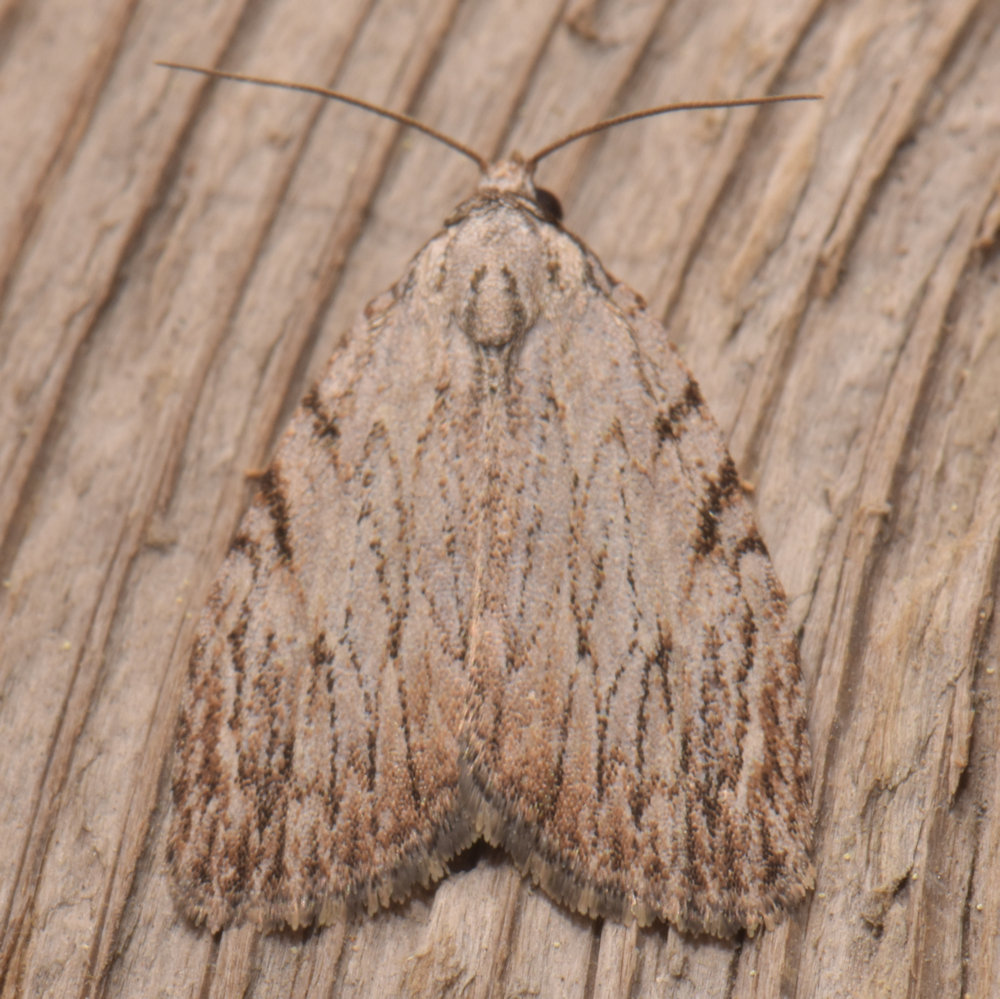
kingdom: Animalia
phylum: Arthropoda
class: Insecta
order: Lepidoptera
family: Noctuidae
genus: Balsa
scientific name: Balsa tristrigella
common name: Three-lined balsa moth
